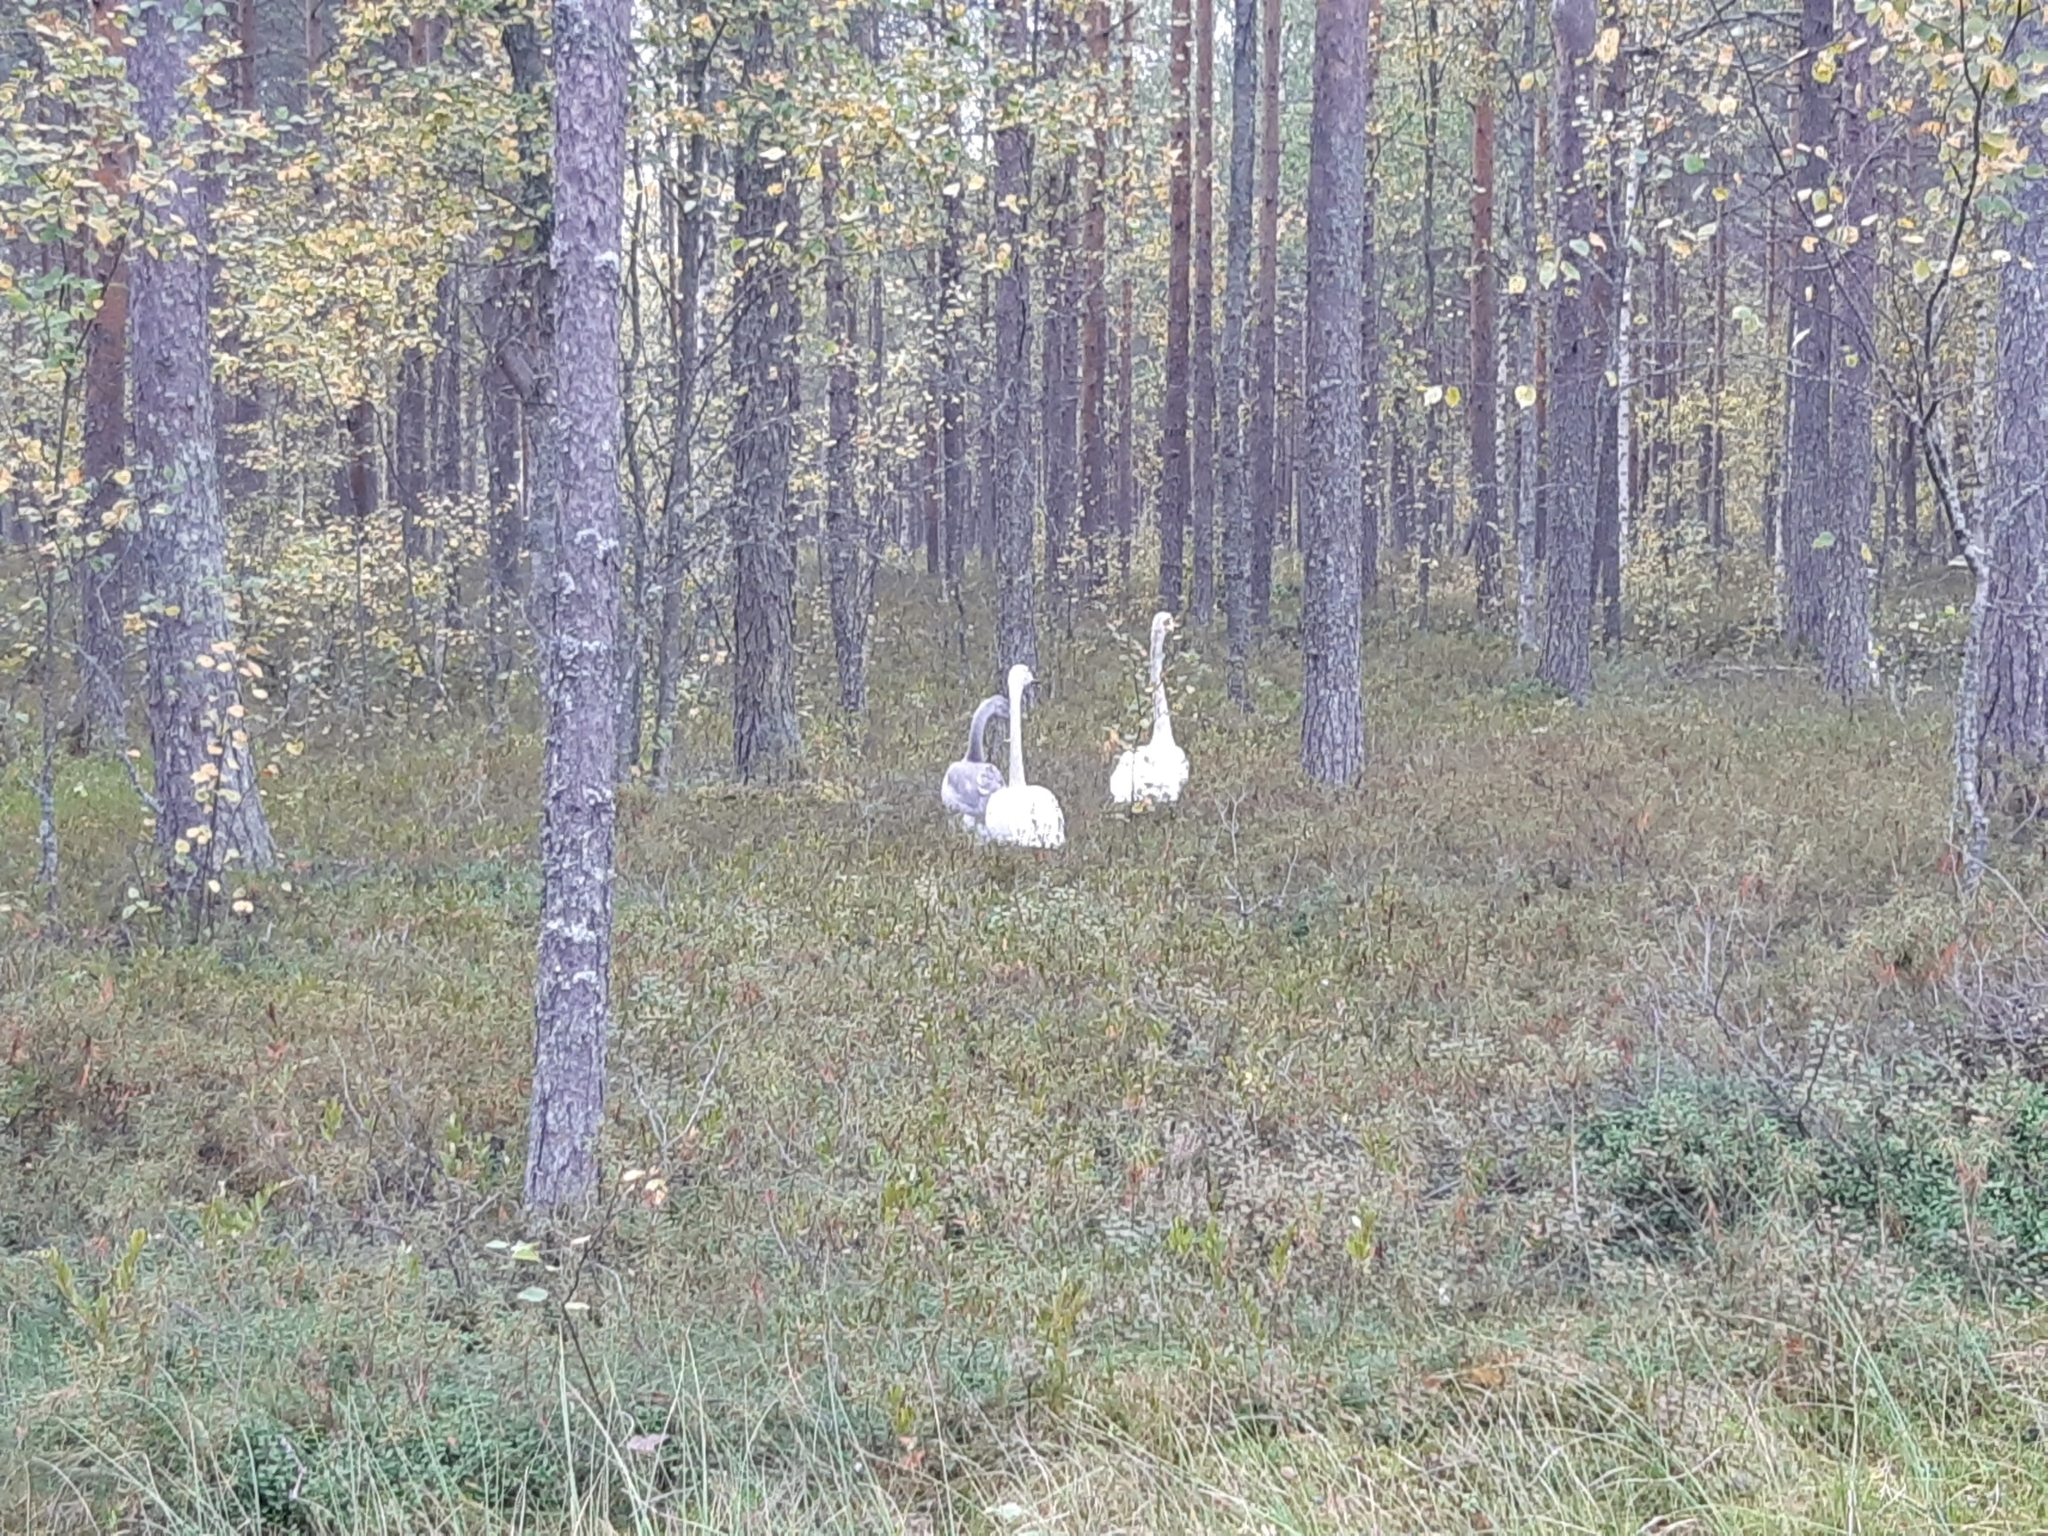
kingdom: Animalia
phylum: Chordata
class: Aves
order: Anseriformes
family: Anatidae
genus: Cygnus
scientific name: Cygnus cygnus
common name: Whooper swan
